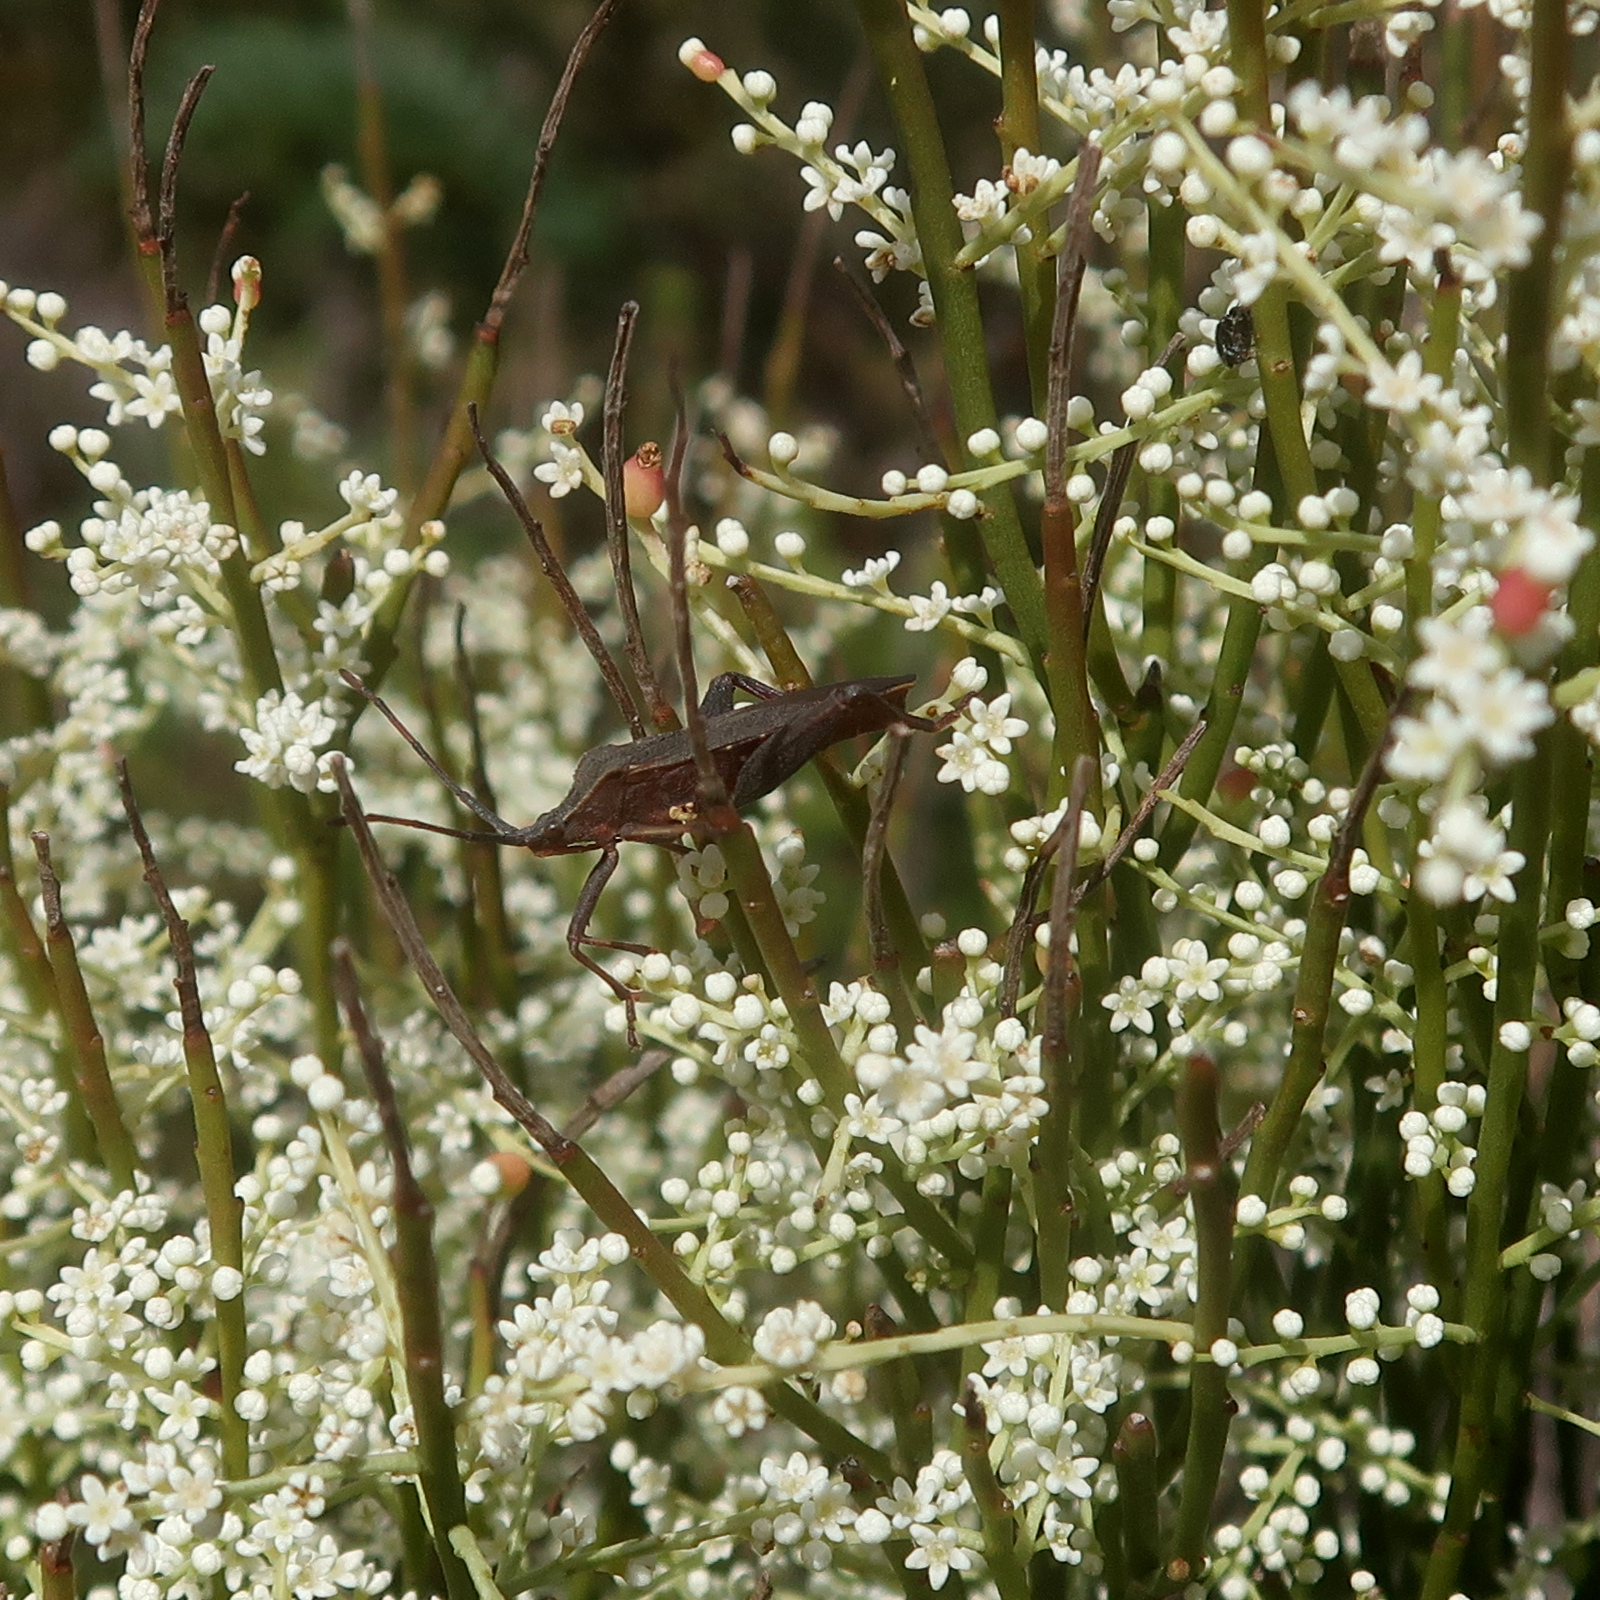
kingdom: Animalia
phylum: Arthropoda
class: Insecta
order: Hemiptera
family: Coreidae
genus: Amorbus
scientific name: Amorbus obscuricornis
